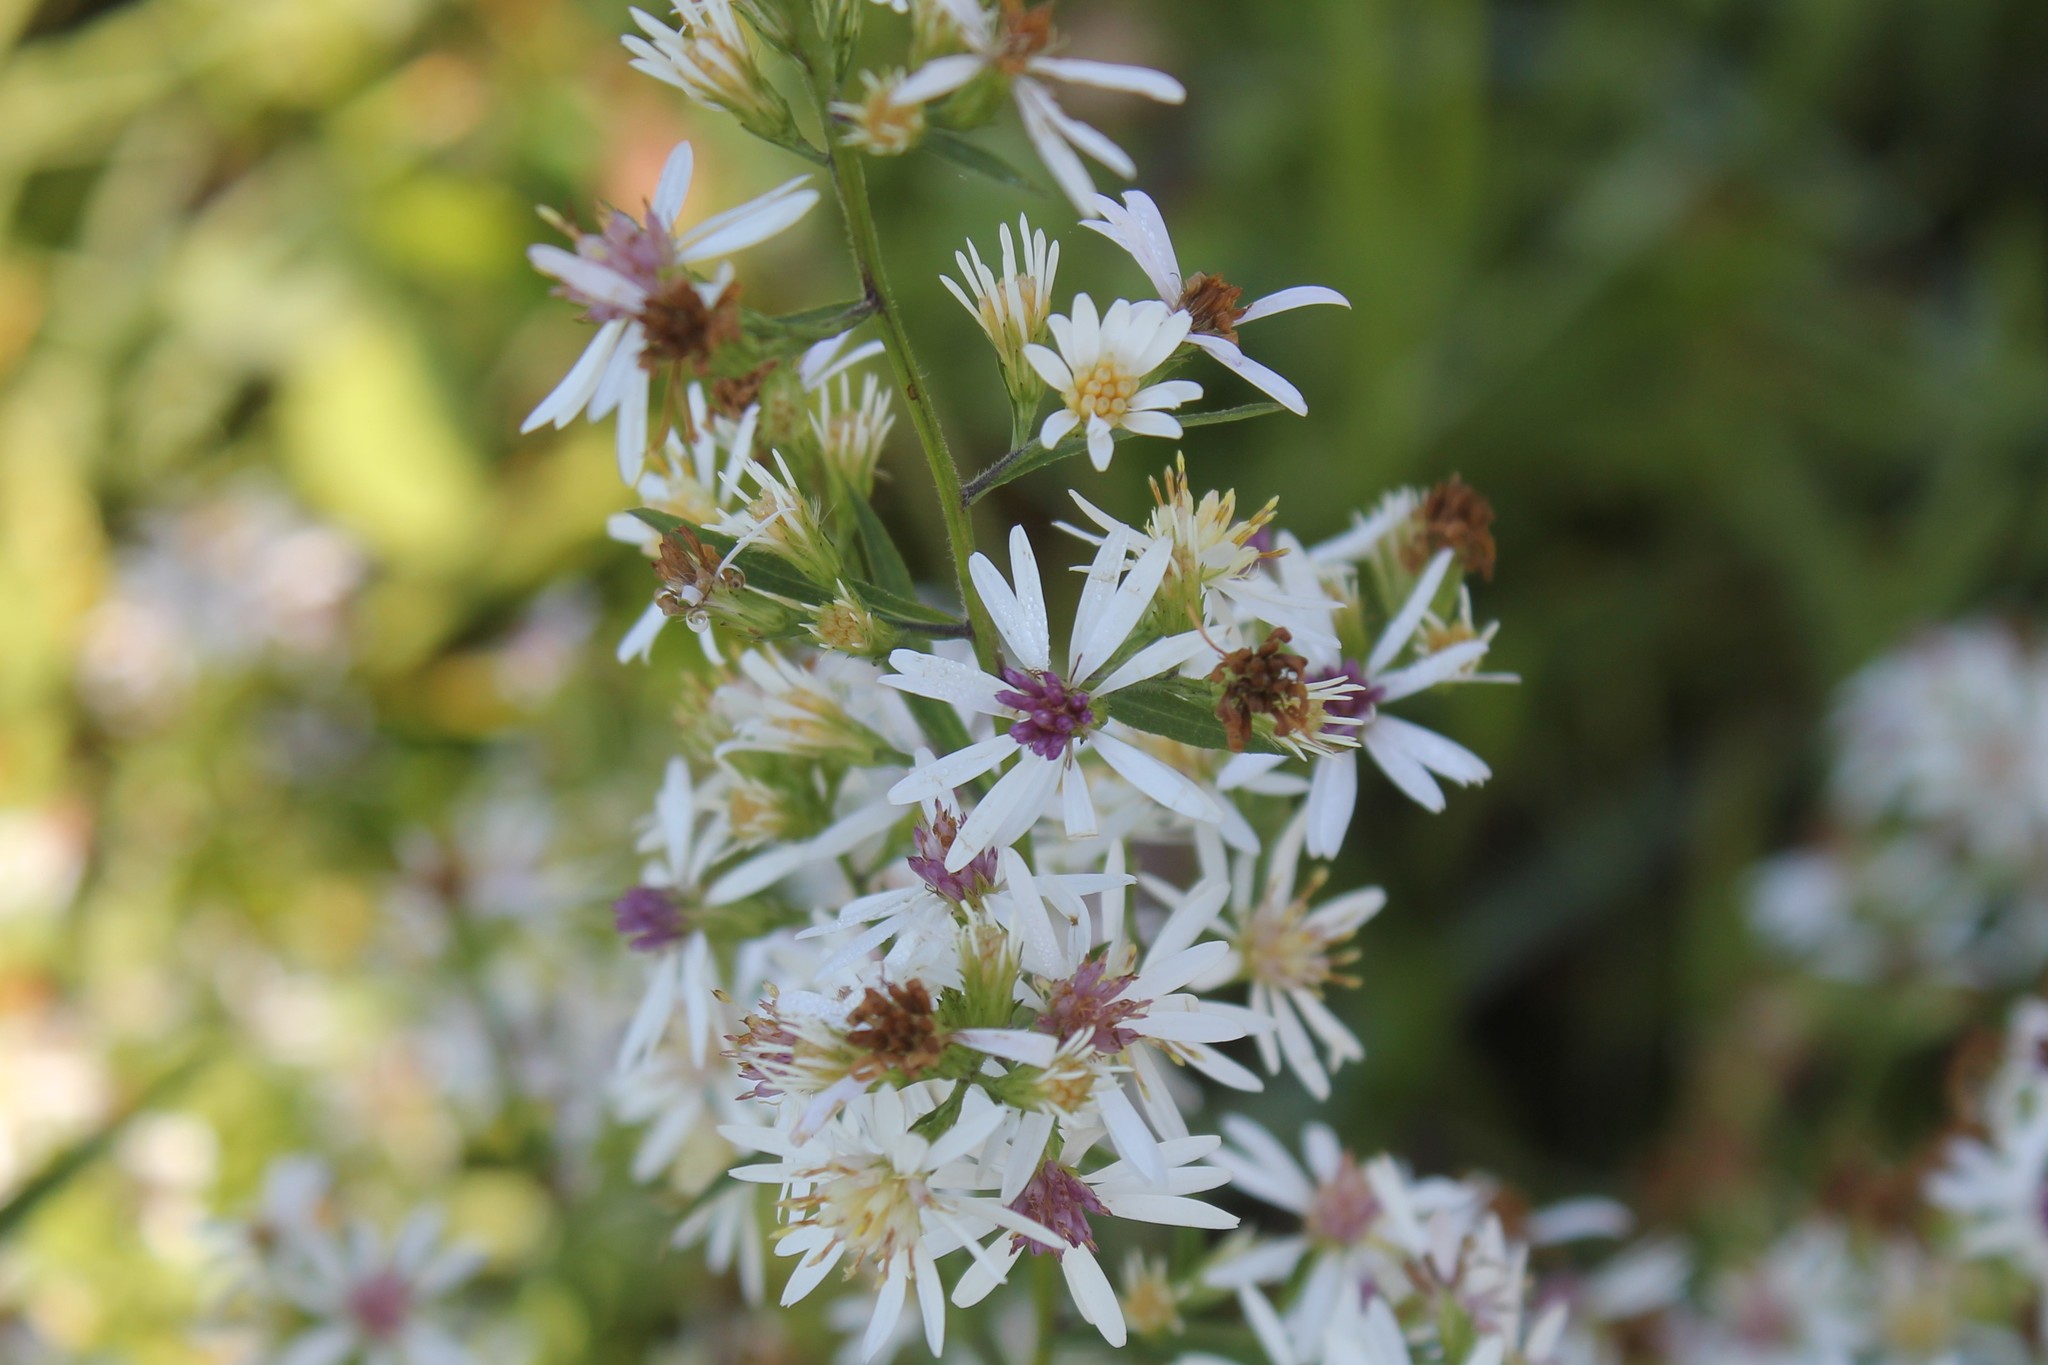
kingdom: Plantae
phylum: Tracheophyta
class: Magnoliopsida
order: Asterales
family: Asteraceae
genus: Symphyotrichum
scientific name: Symphyotrichum urophyllum
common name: Arrow-leaved aster
